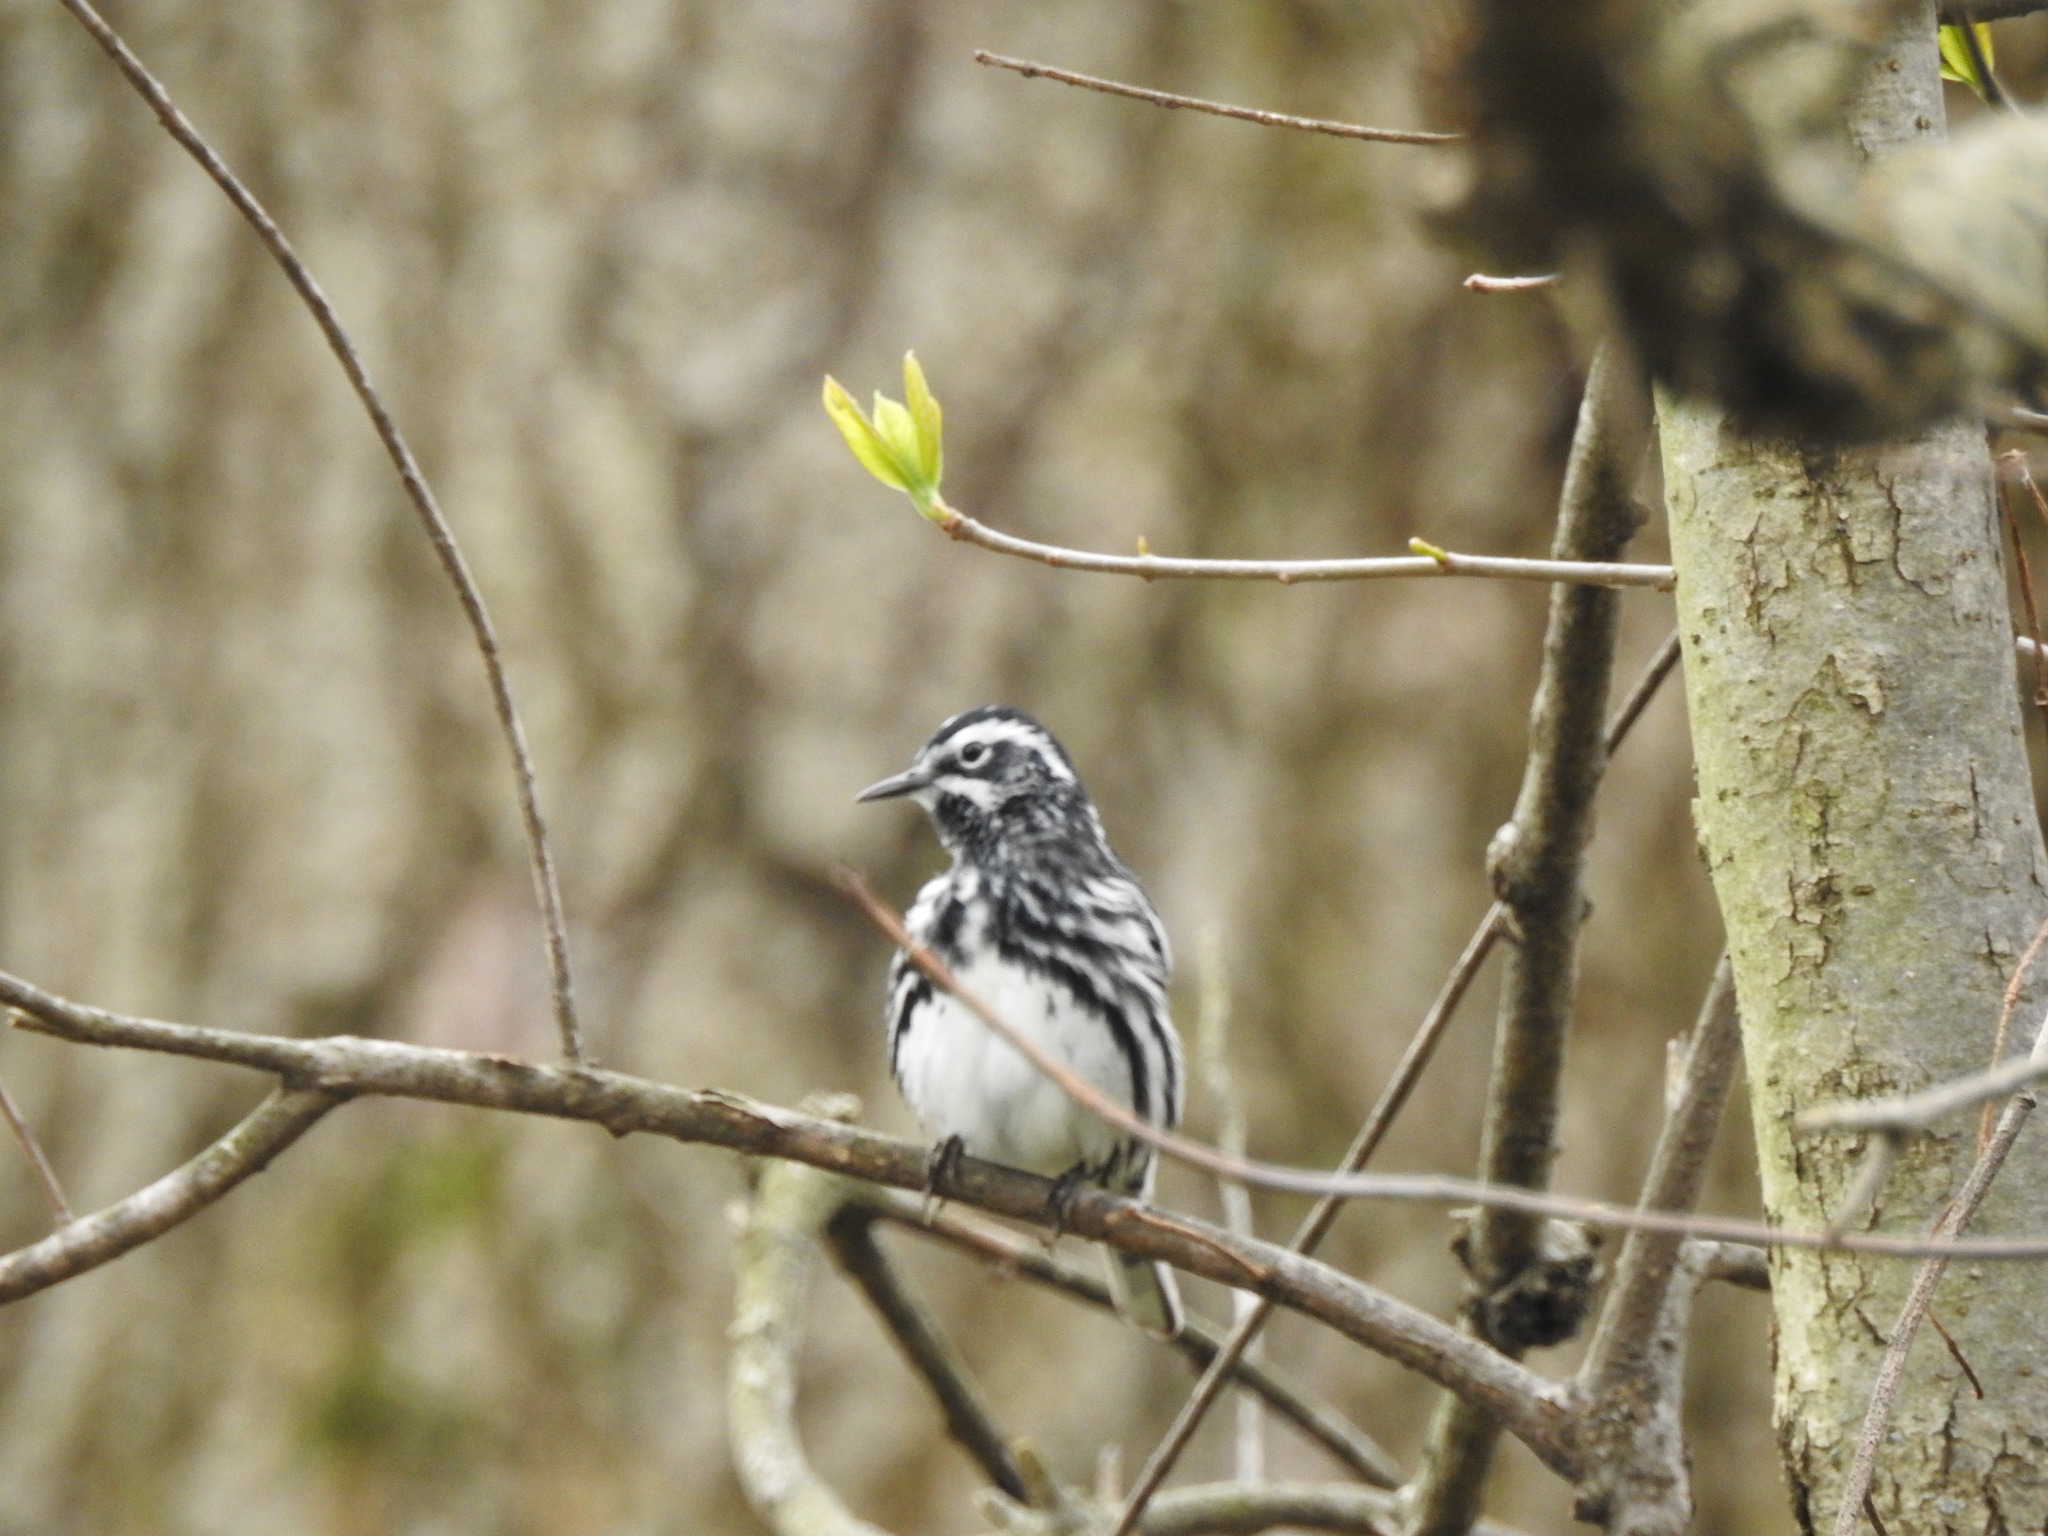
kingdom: Animalia
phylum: Chordata
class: Aves
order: Passeriformes
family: Parulidae
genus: Mniotilta
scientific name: Mniotilta varia
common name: Black-and-white warbler
